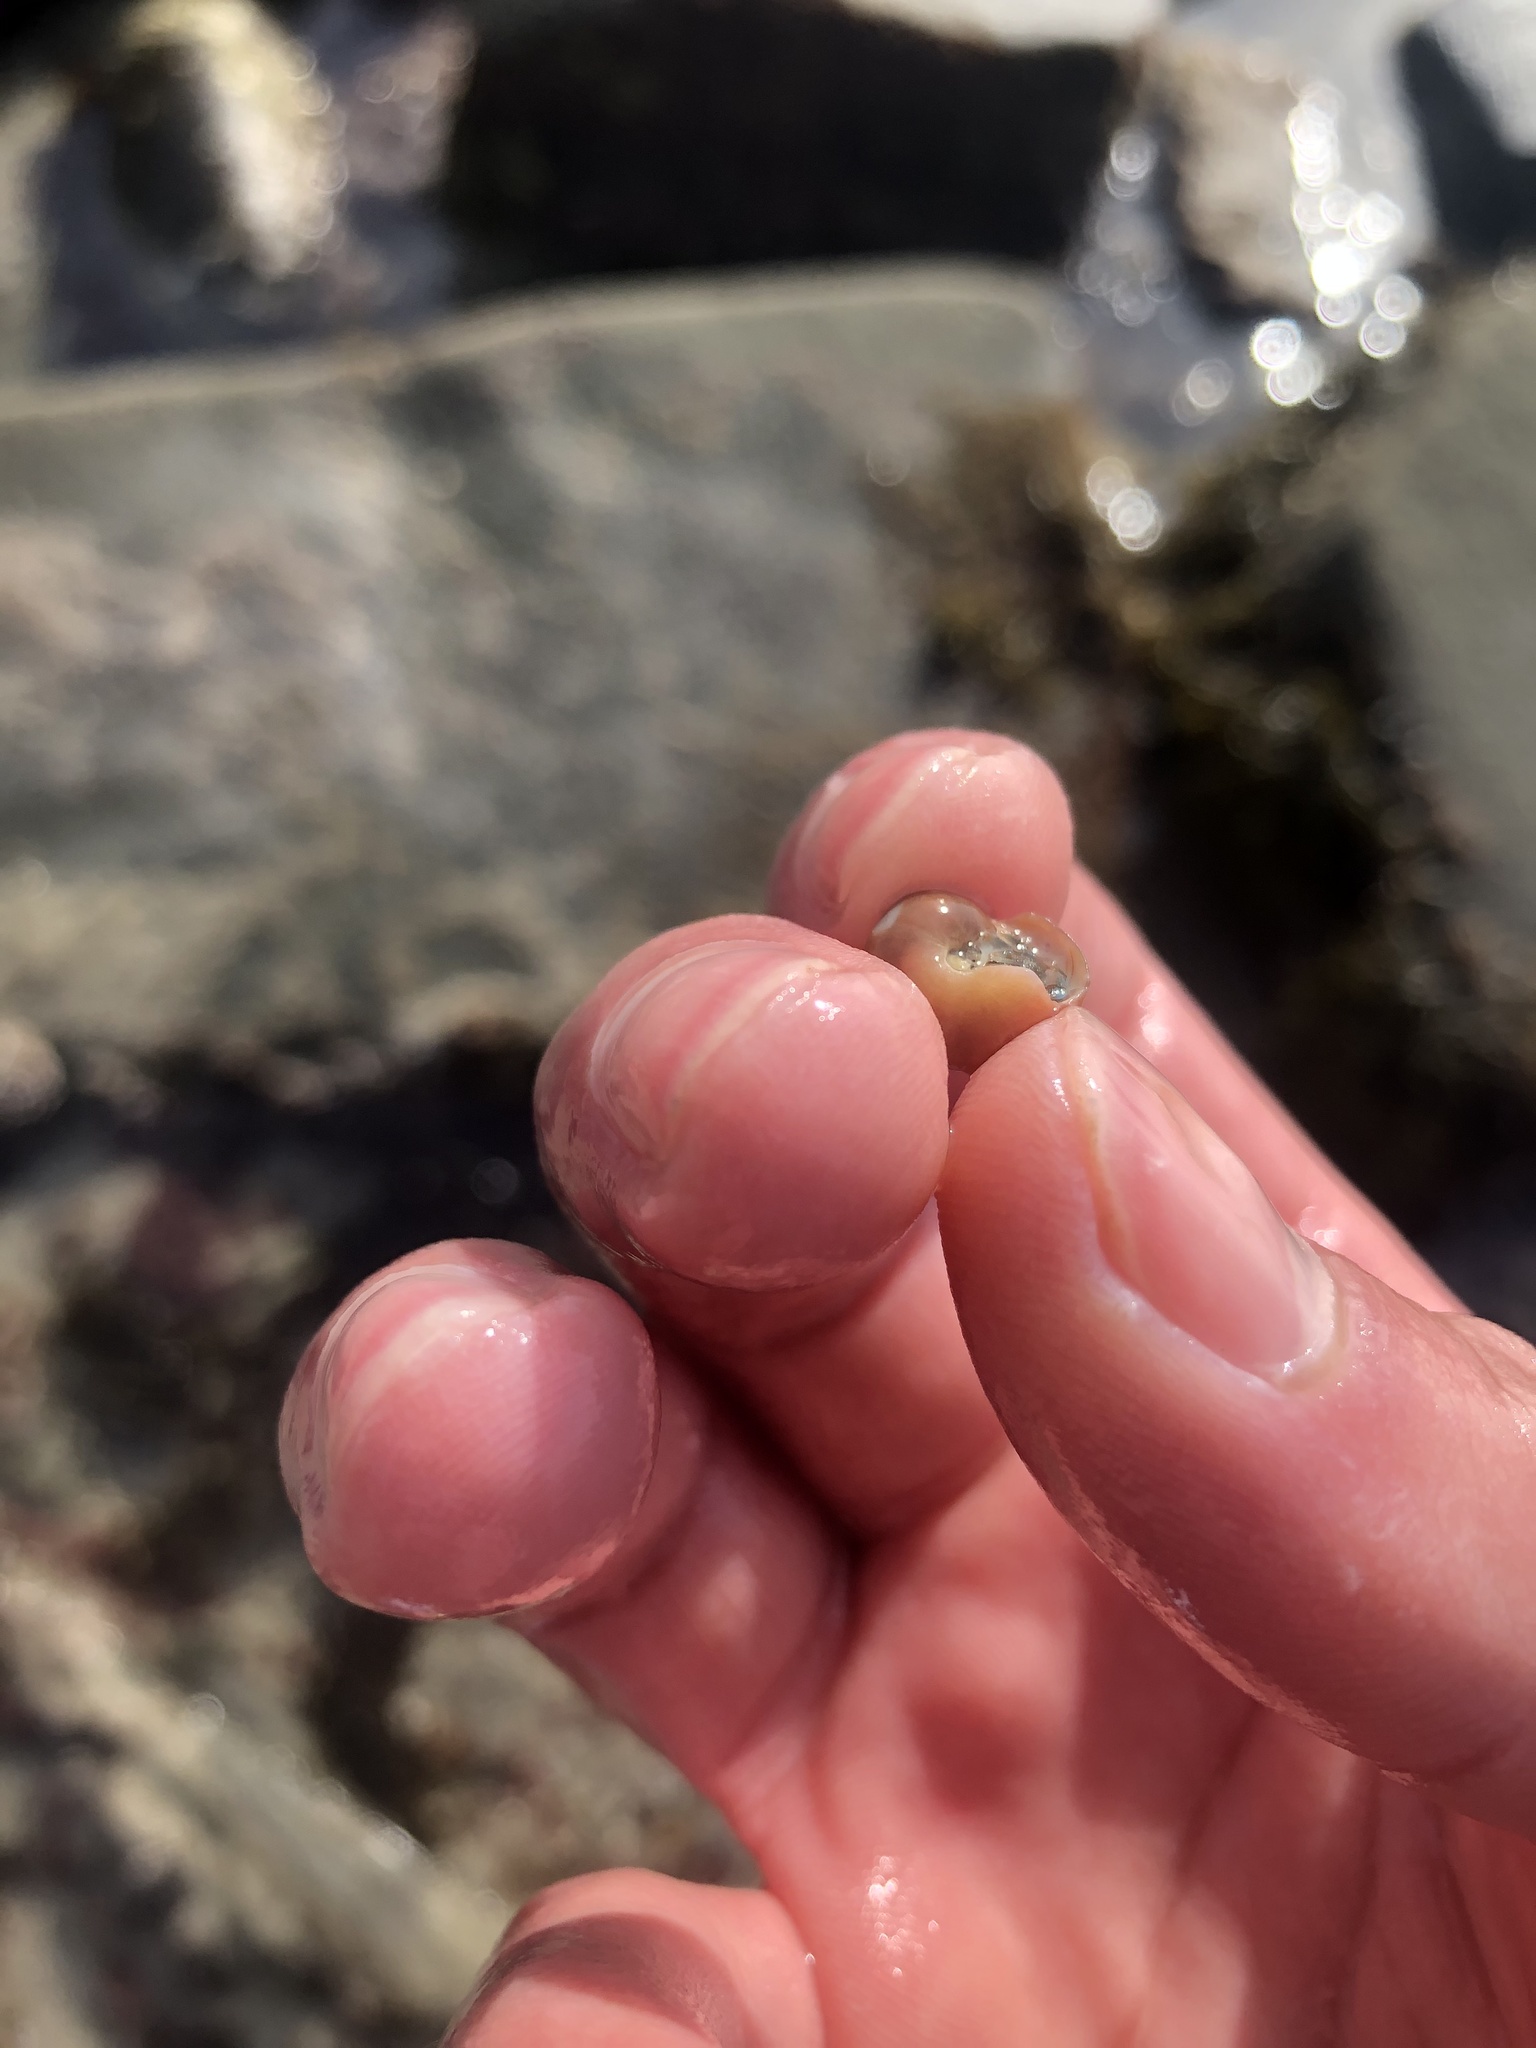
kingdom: Animalia
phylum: Mollusca
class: Gastropoda
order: Trochida
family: Tegulidae
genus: Norrisia
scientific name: Norrisia norrisii
